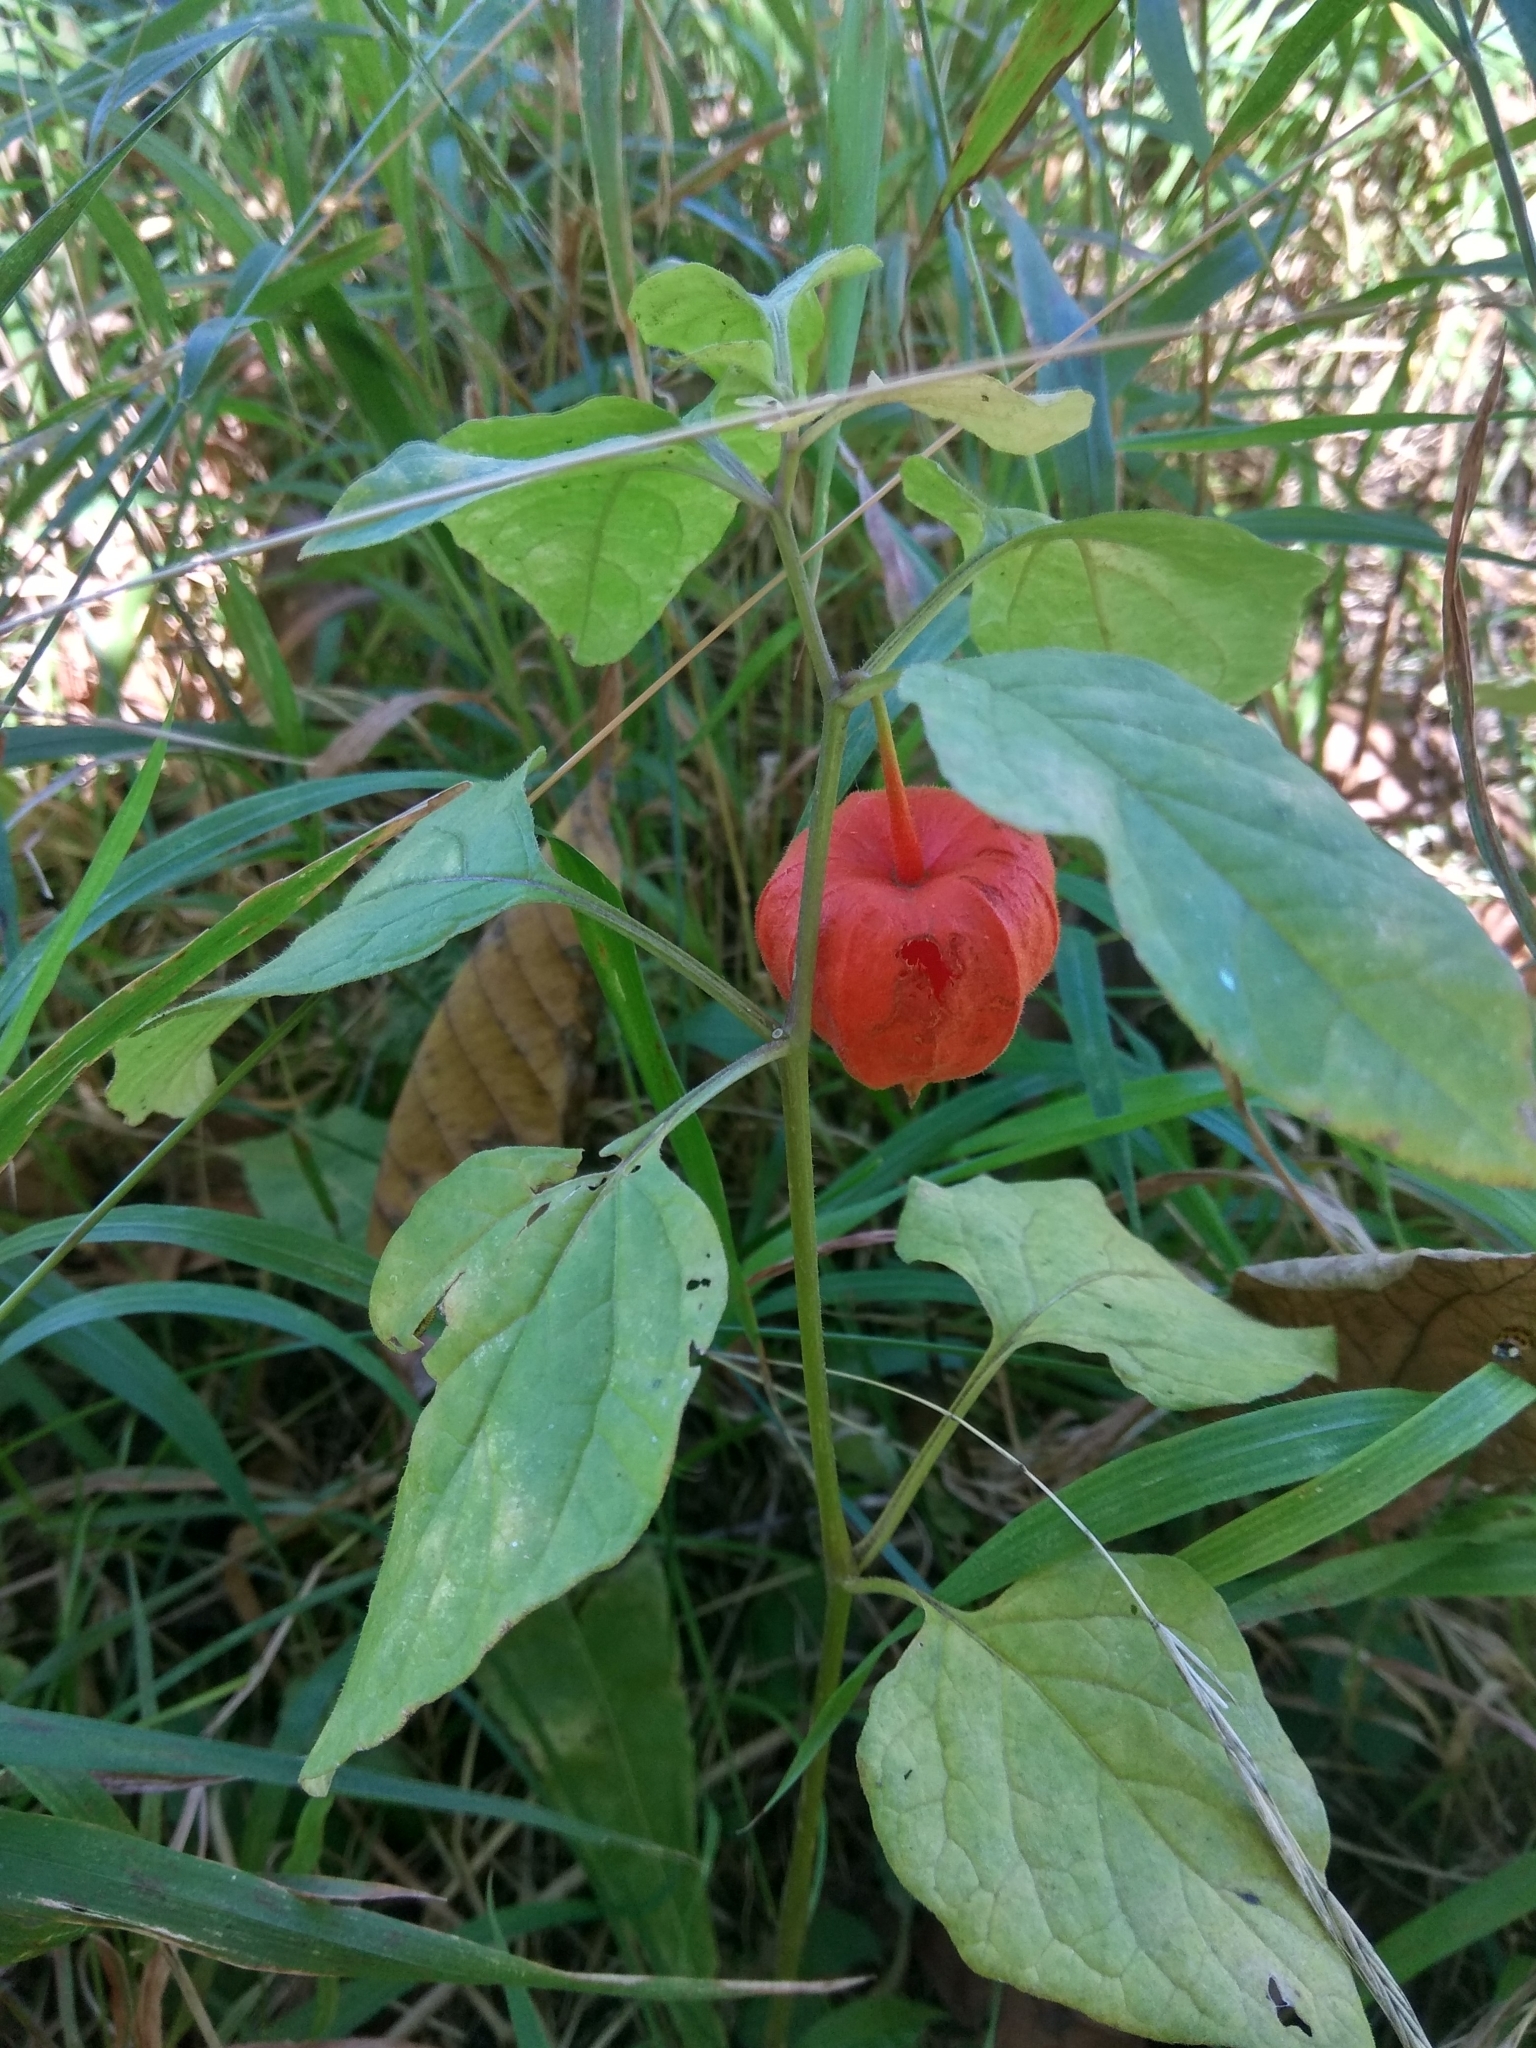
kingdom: Plantae
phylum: Tracheophyta
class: Magnoliopsida
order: Solanales
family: Solanaceae
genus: Alkekengi
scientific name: Alkekengi officinarum
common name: Japanese-lantern
